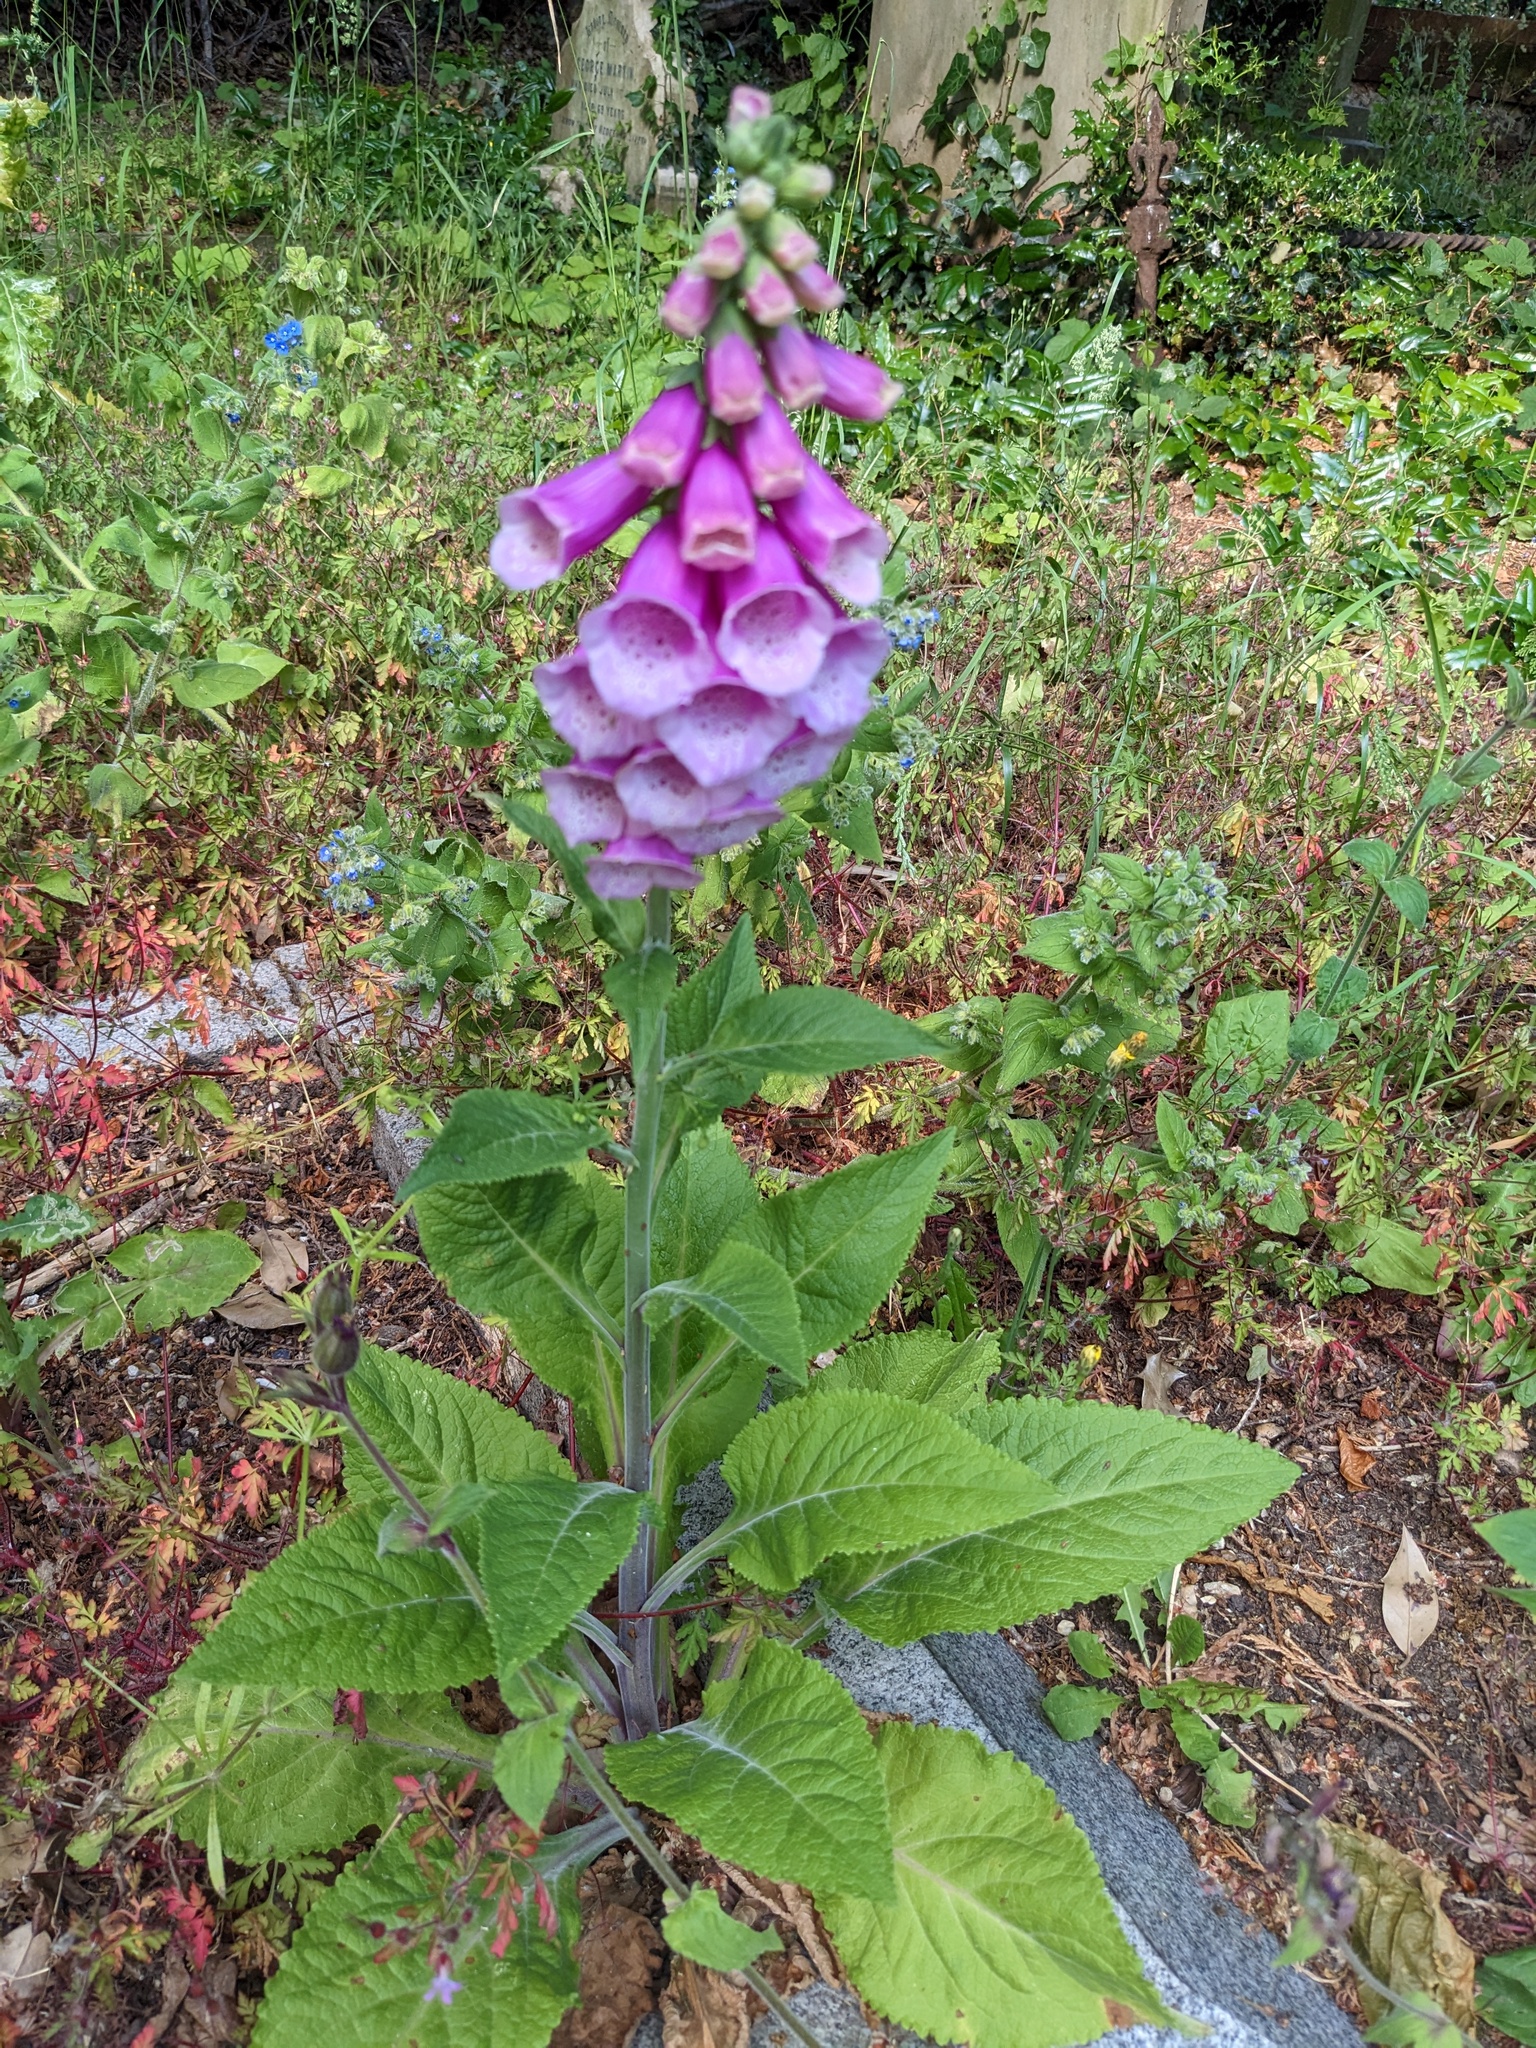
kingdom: Plantae
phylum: Tracheophyta
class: Magnoliopsida
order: Lamiales
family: Plantaginaceae
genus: Digitalis
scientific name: Digitalis purpurea
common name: Foxglove
